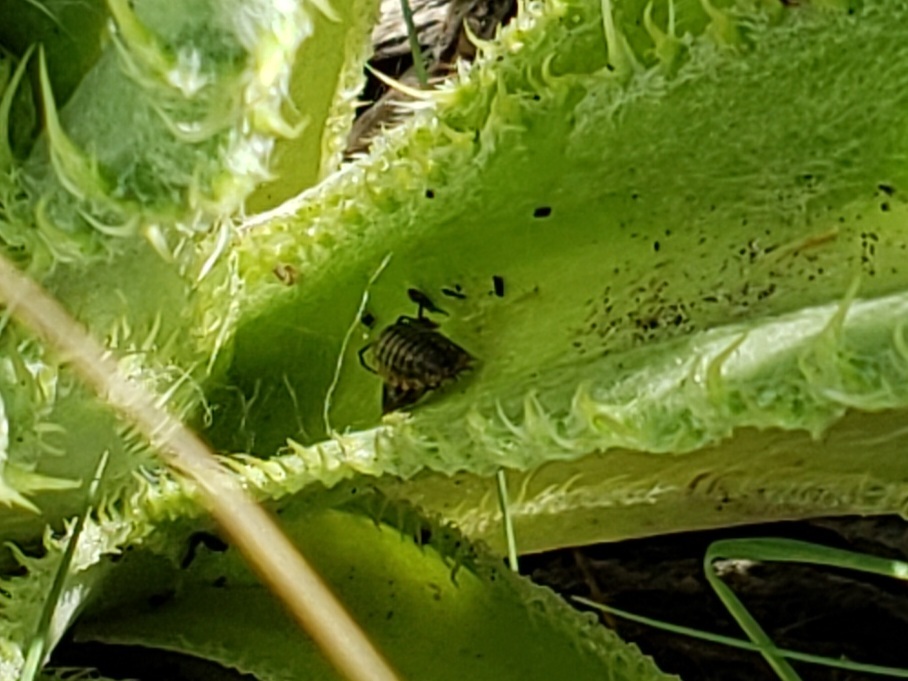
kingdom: Animalia
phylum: Arthropoda
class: Malacostraca
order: Isopoda
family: Porcellionidae
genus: Porcellionides
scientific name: Porcellionides virgatus
